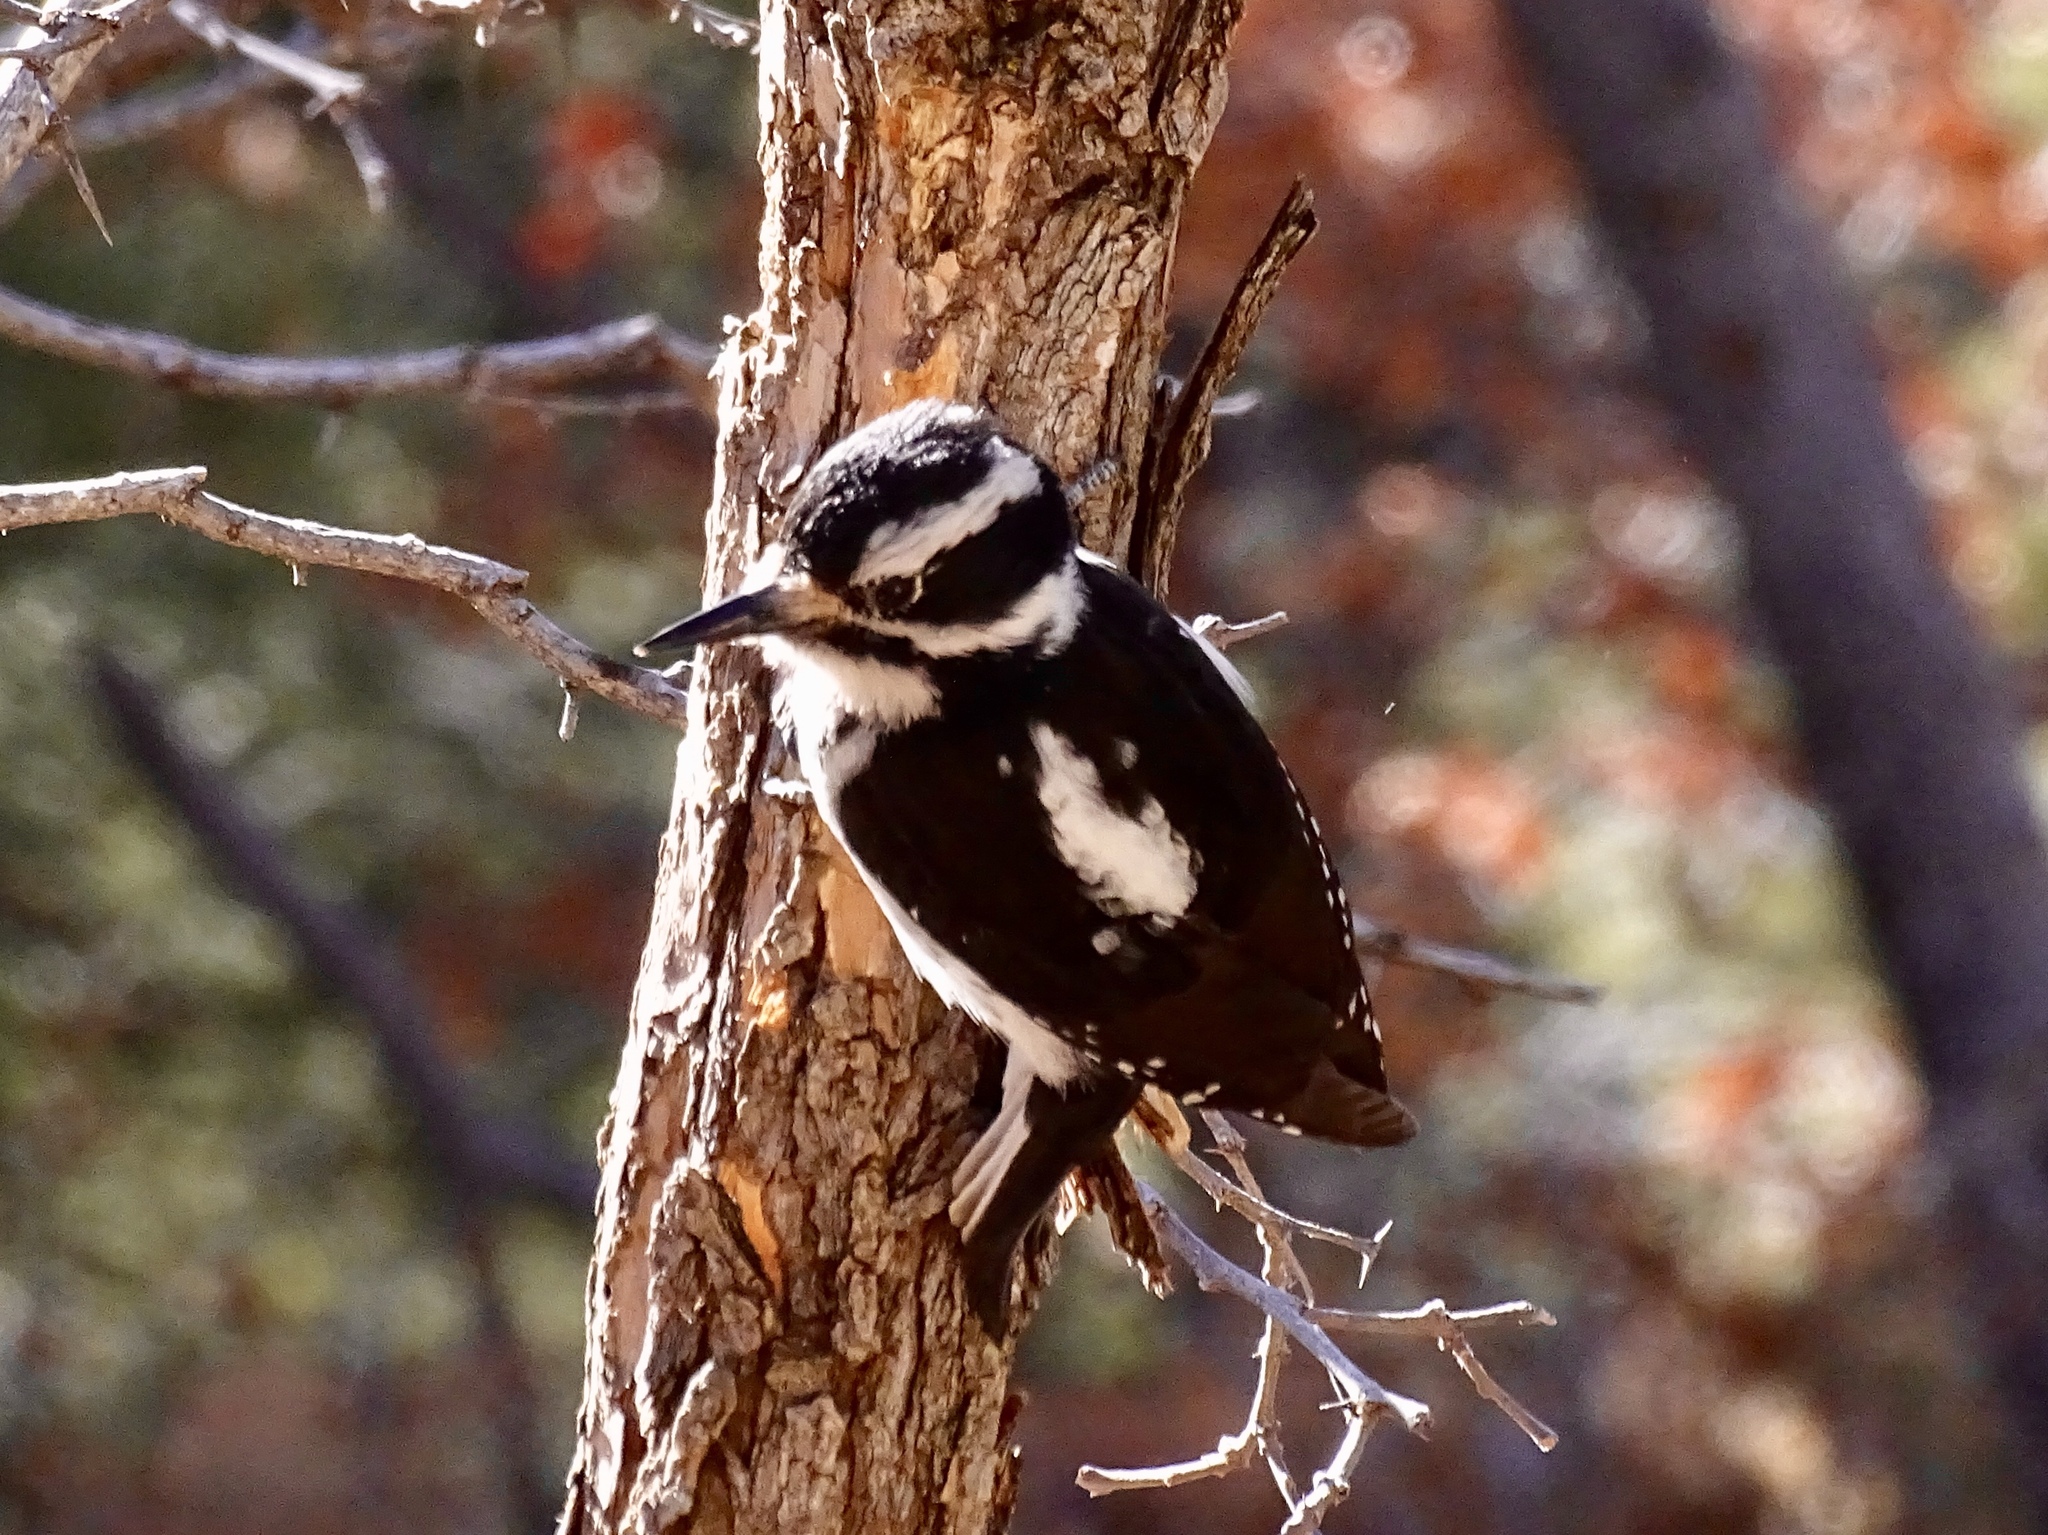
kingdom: Animalia
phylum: Chordata
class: Aves
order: Piciformes
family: Picidae
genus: Leuconotopicus
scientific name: Leuconotopicus villosus
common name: Hairy woodpecker
